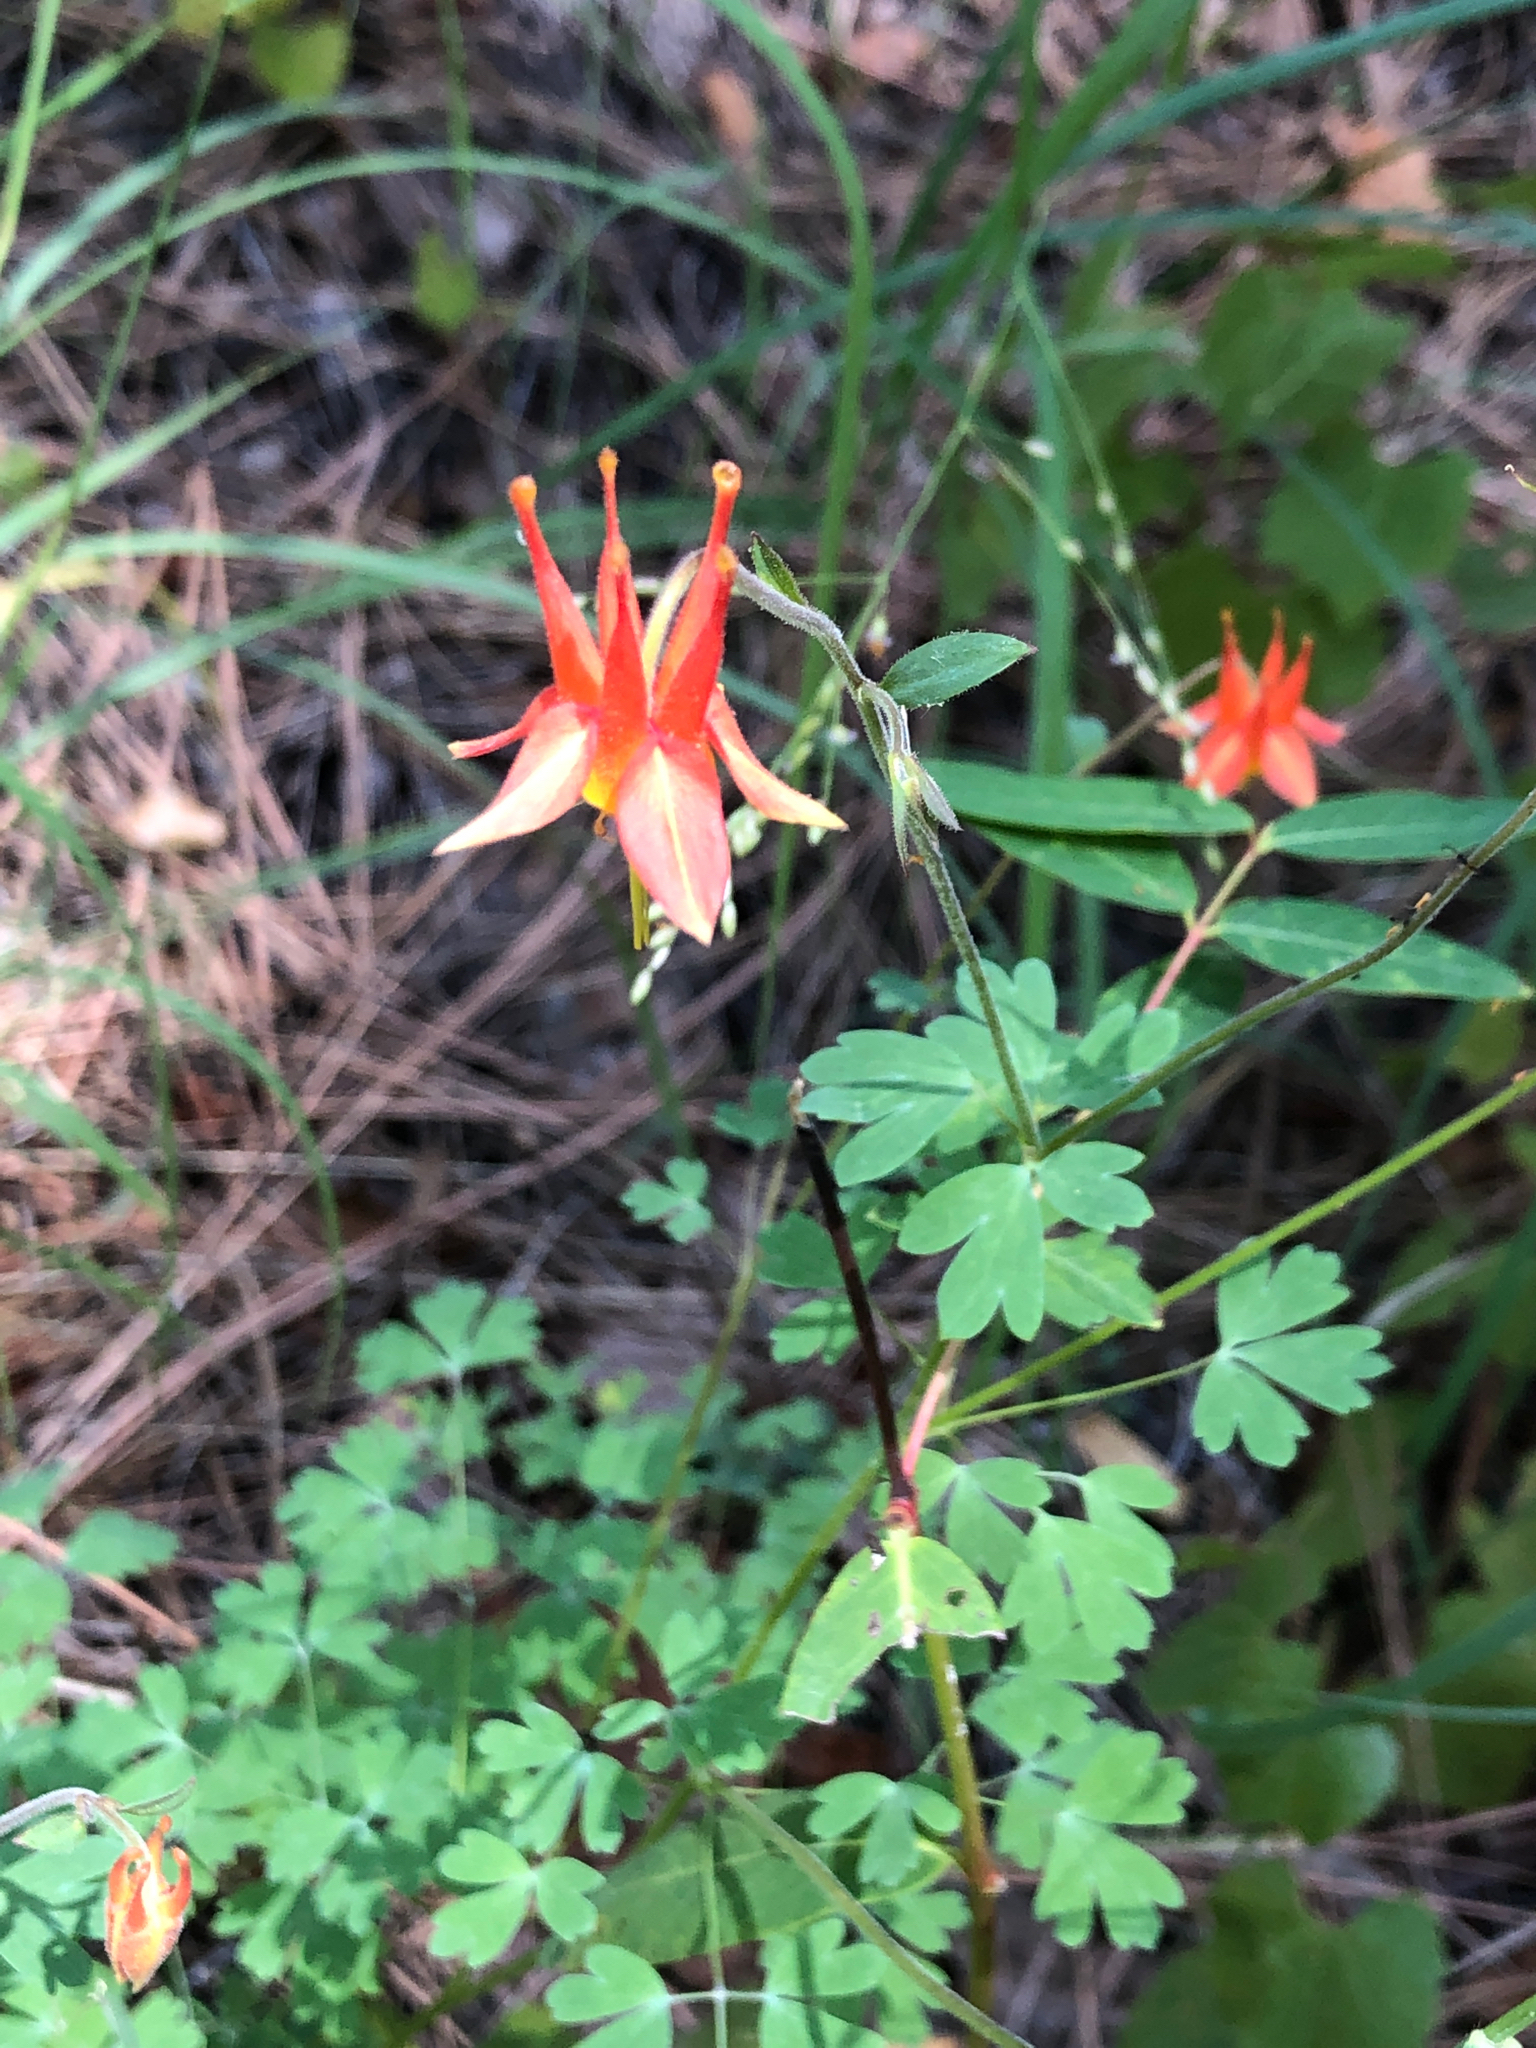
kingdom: Plantae
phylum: Tracheophyta
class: Magnoliopsida
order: Ranunculales
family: Ranunculaceae
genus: Aquilegia
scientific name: Aquilegia desertorum
